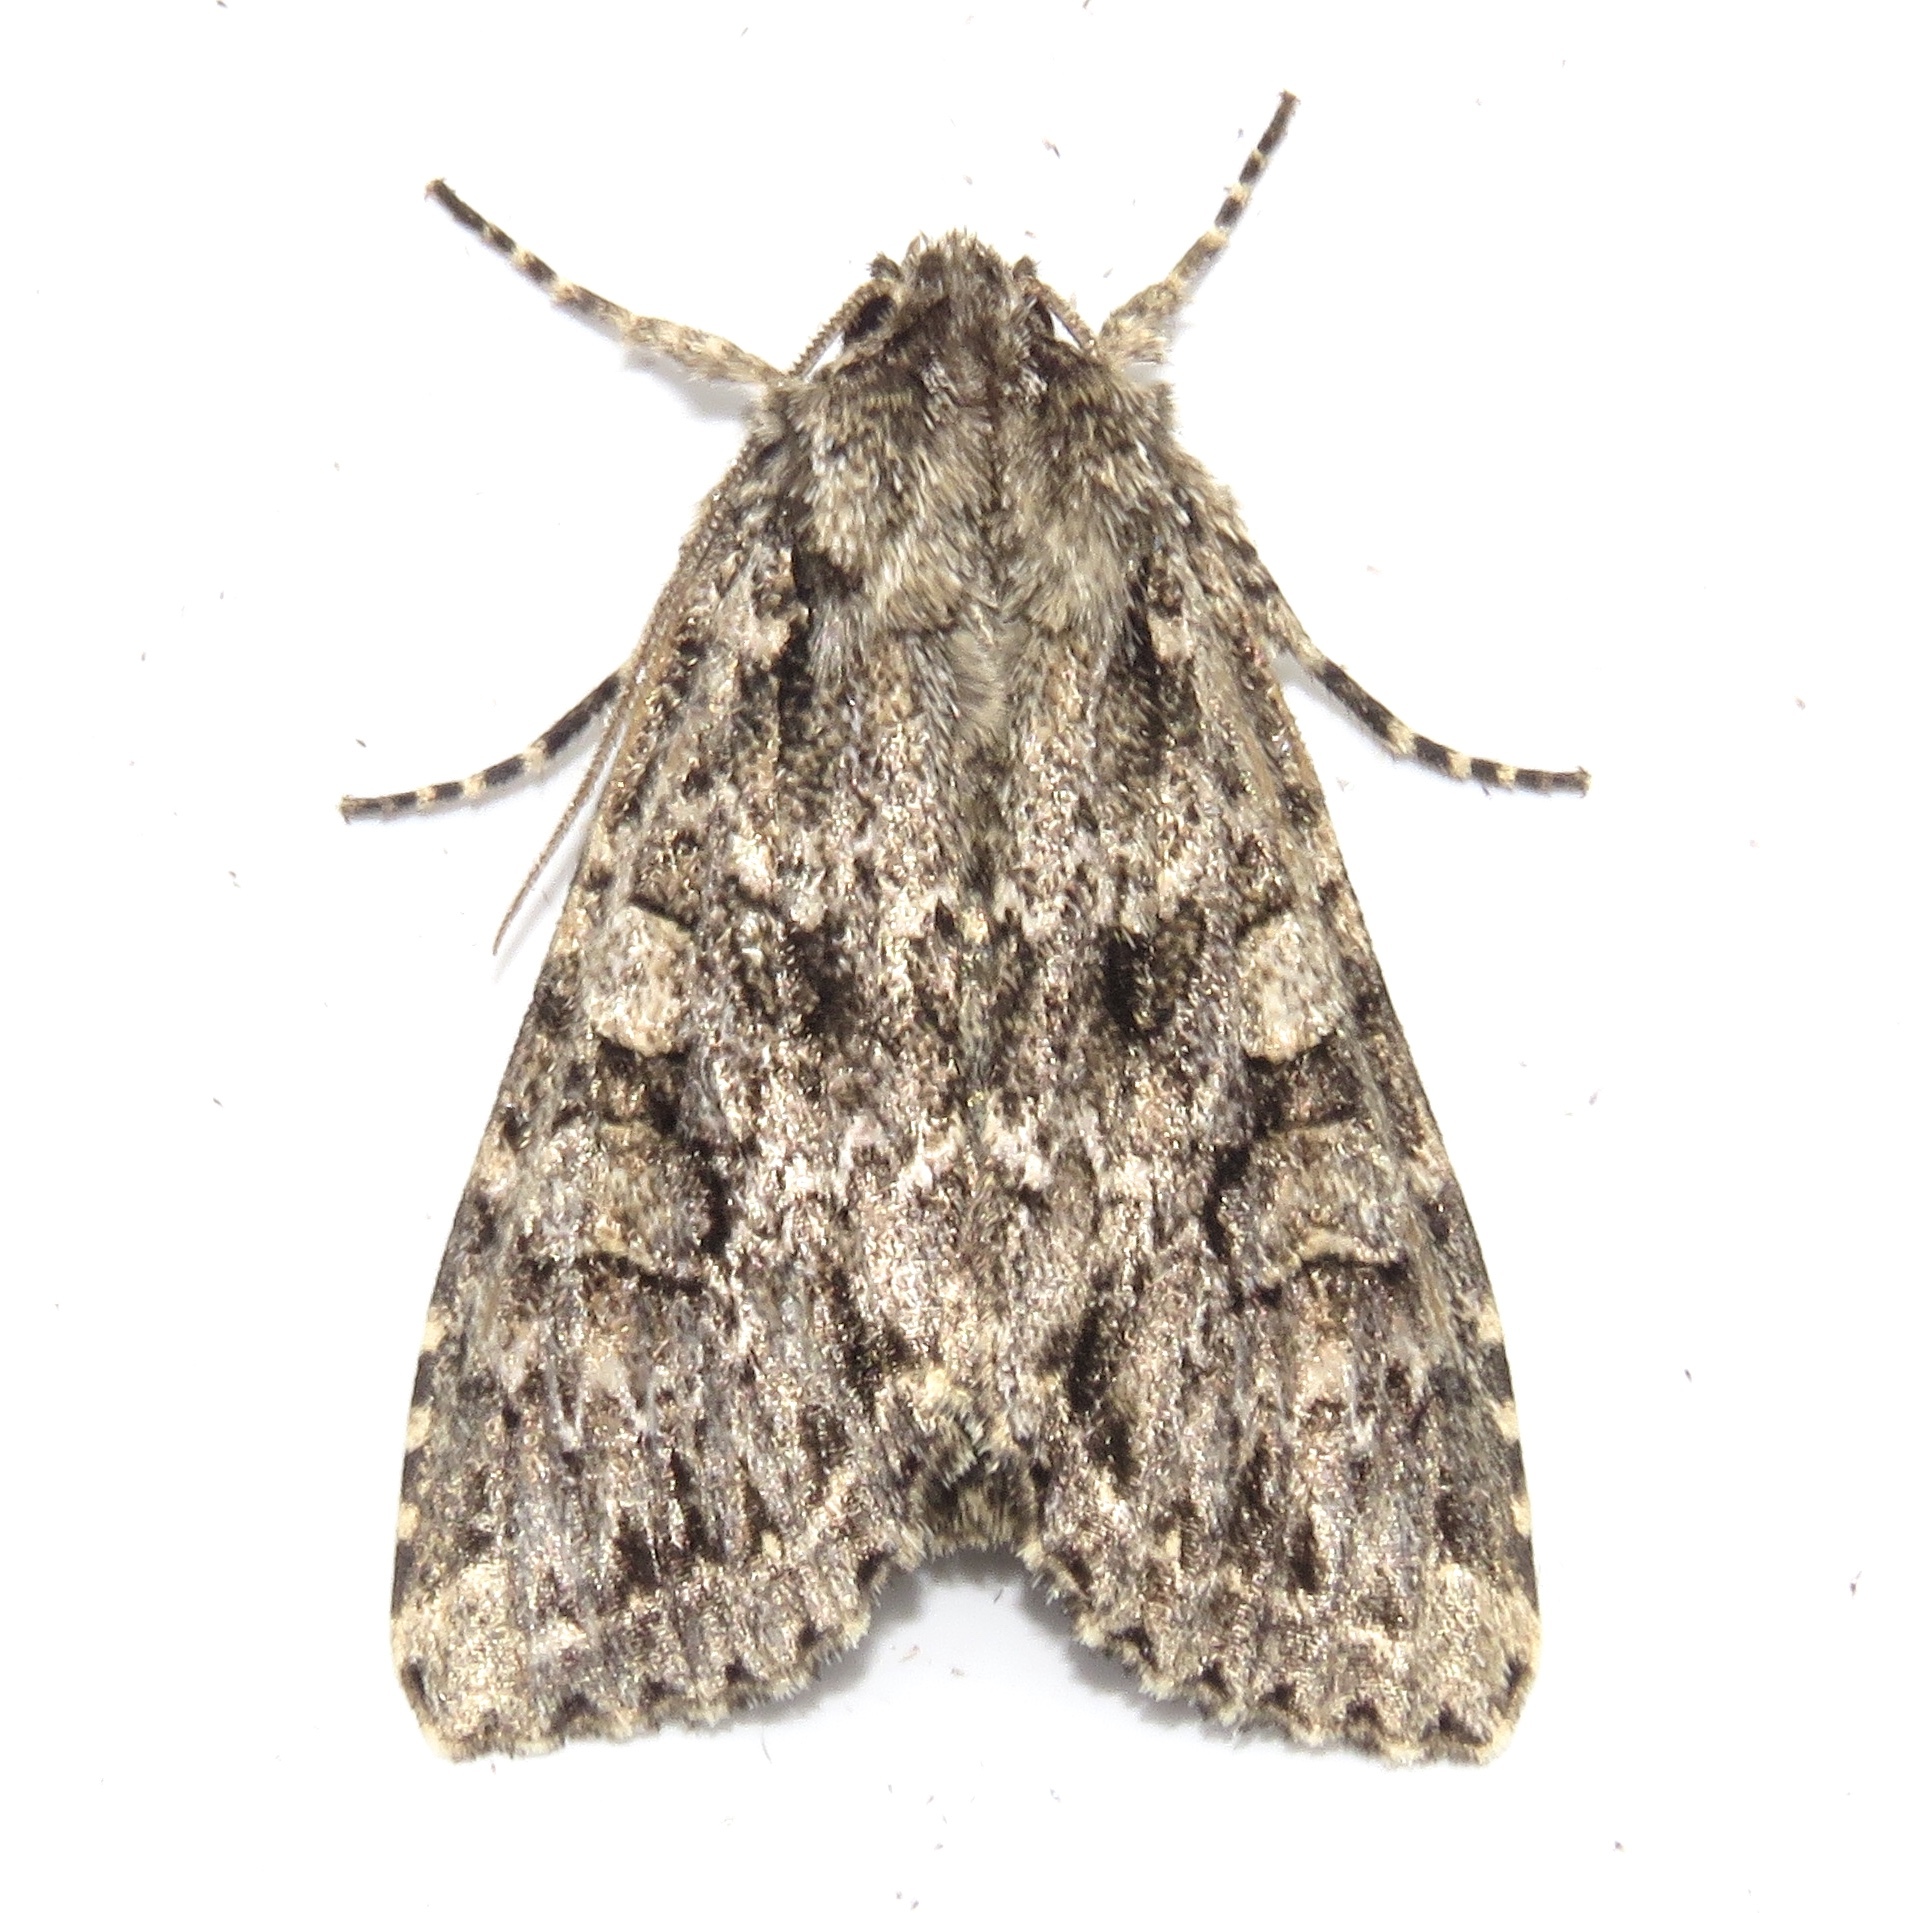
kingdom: Animalia
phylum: Arthropoda
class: Insecta
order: Lepidoptera
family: Noctuidae
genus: Eurois
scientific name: Eurois occulta
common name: Great brocade
